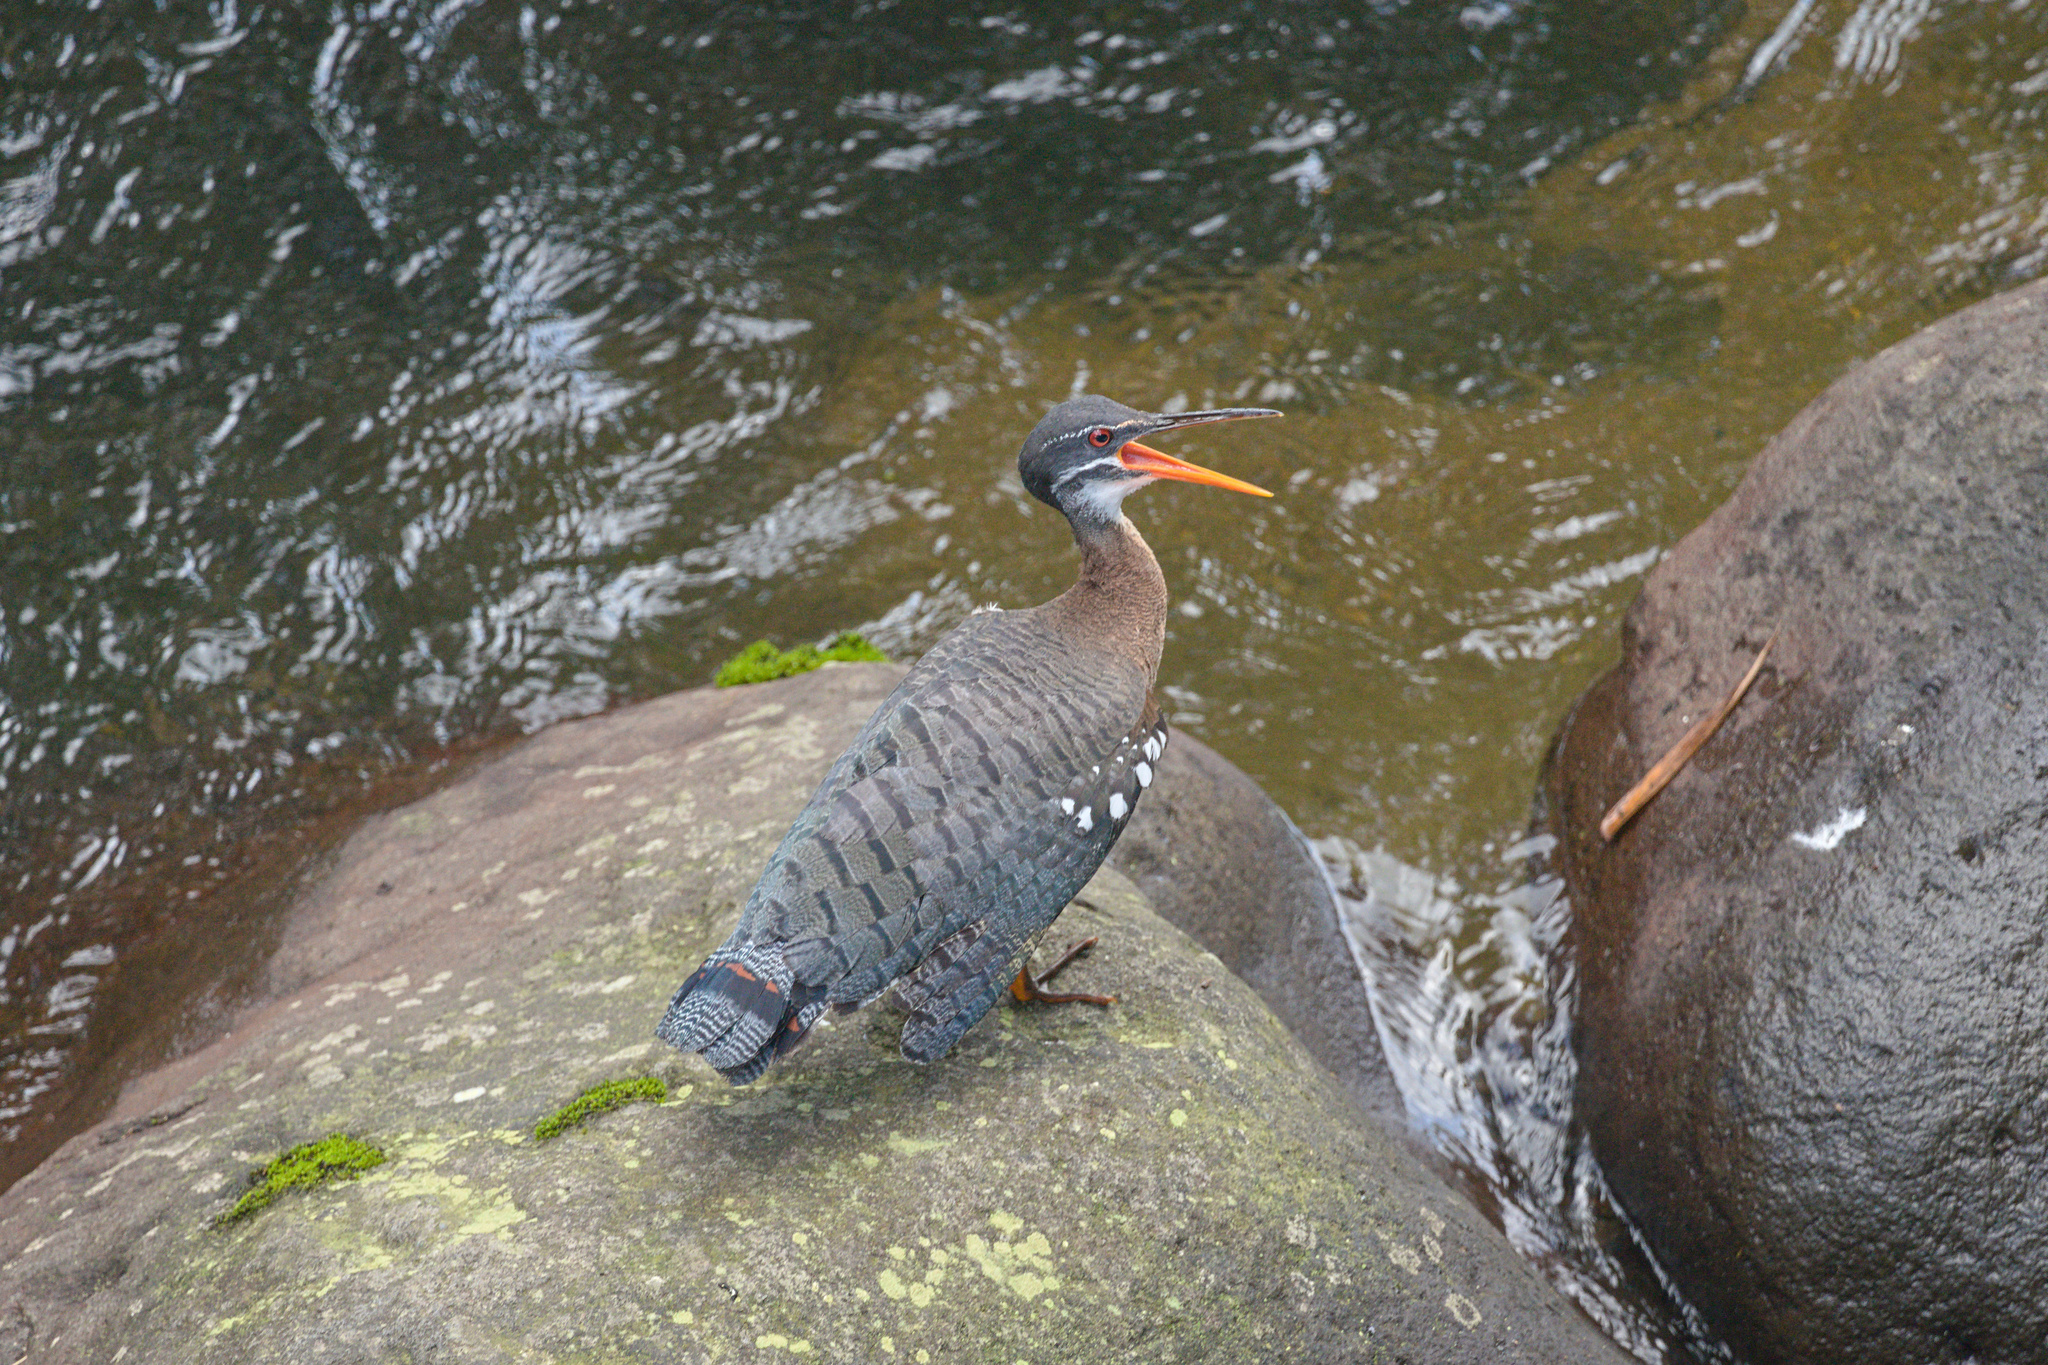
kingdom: Animalia
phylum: Chordata
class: Aves
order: Eurypygiformes
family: Eurypygidae
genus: Eurypyga
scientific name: Eurypyga helias
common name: Sunbittern
